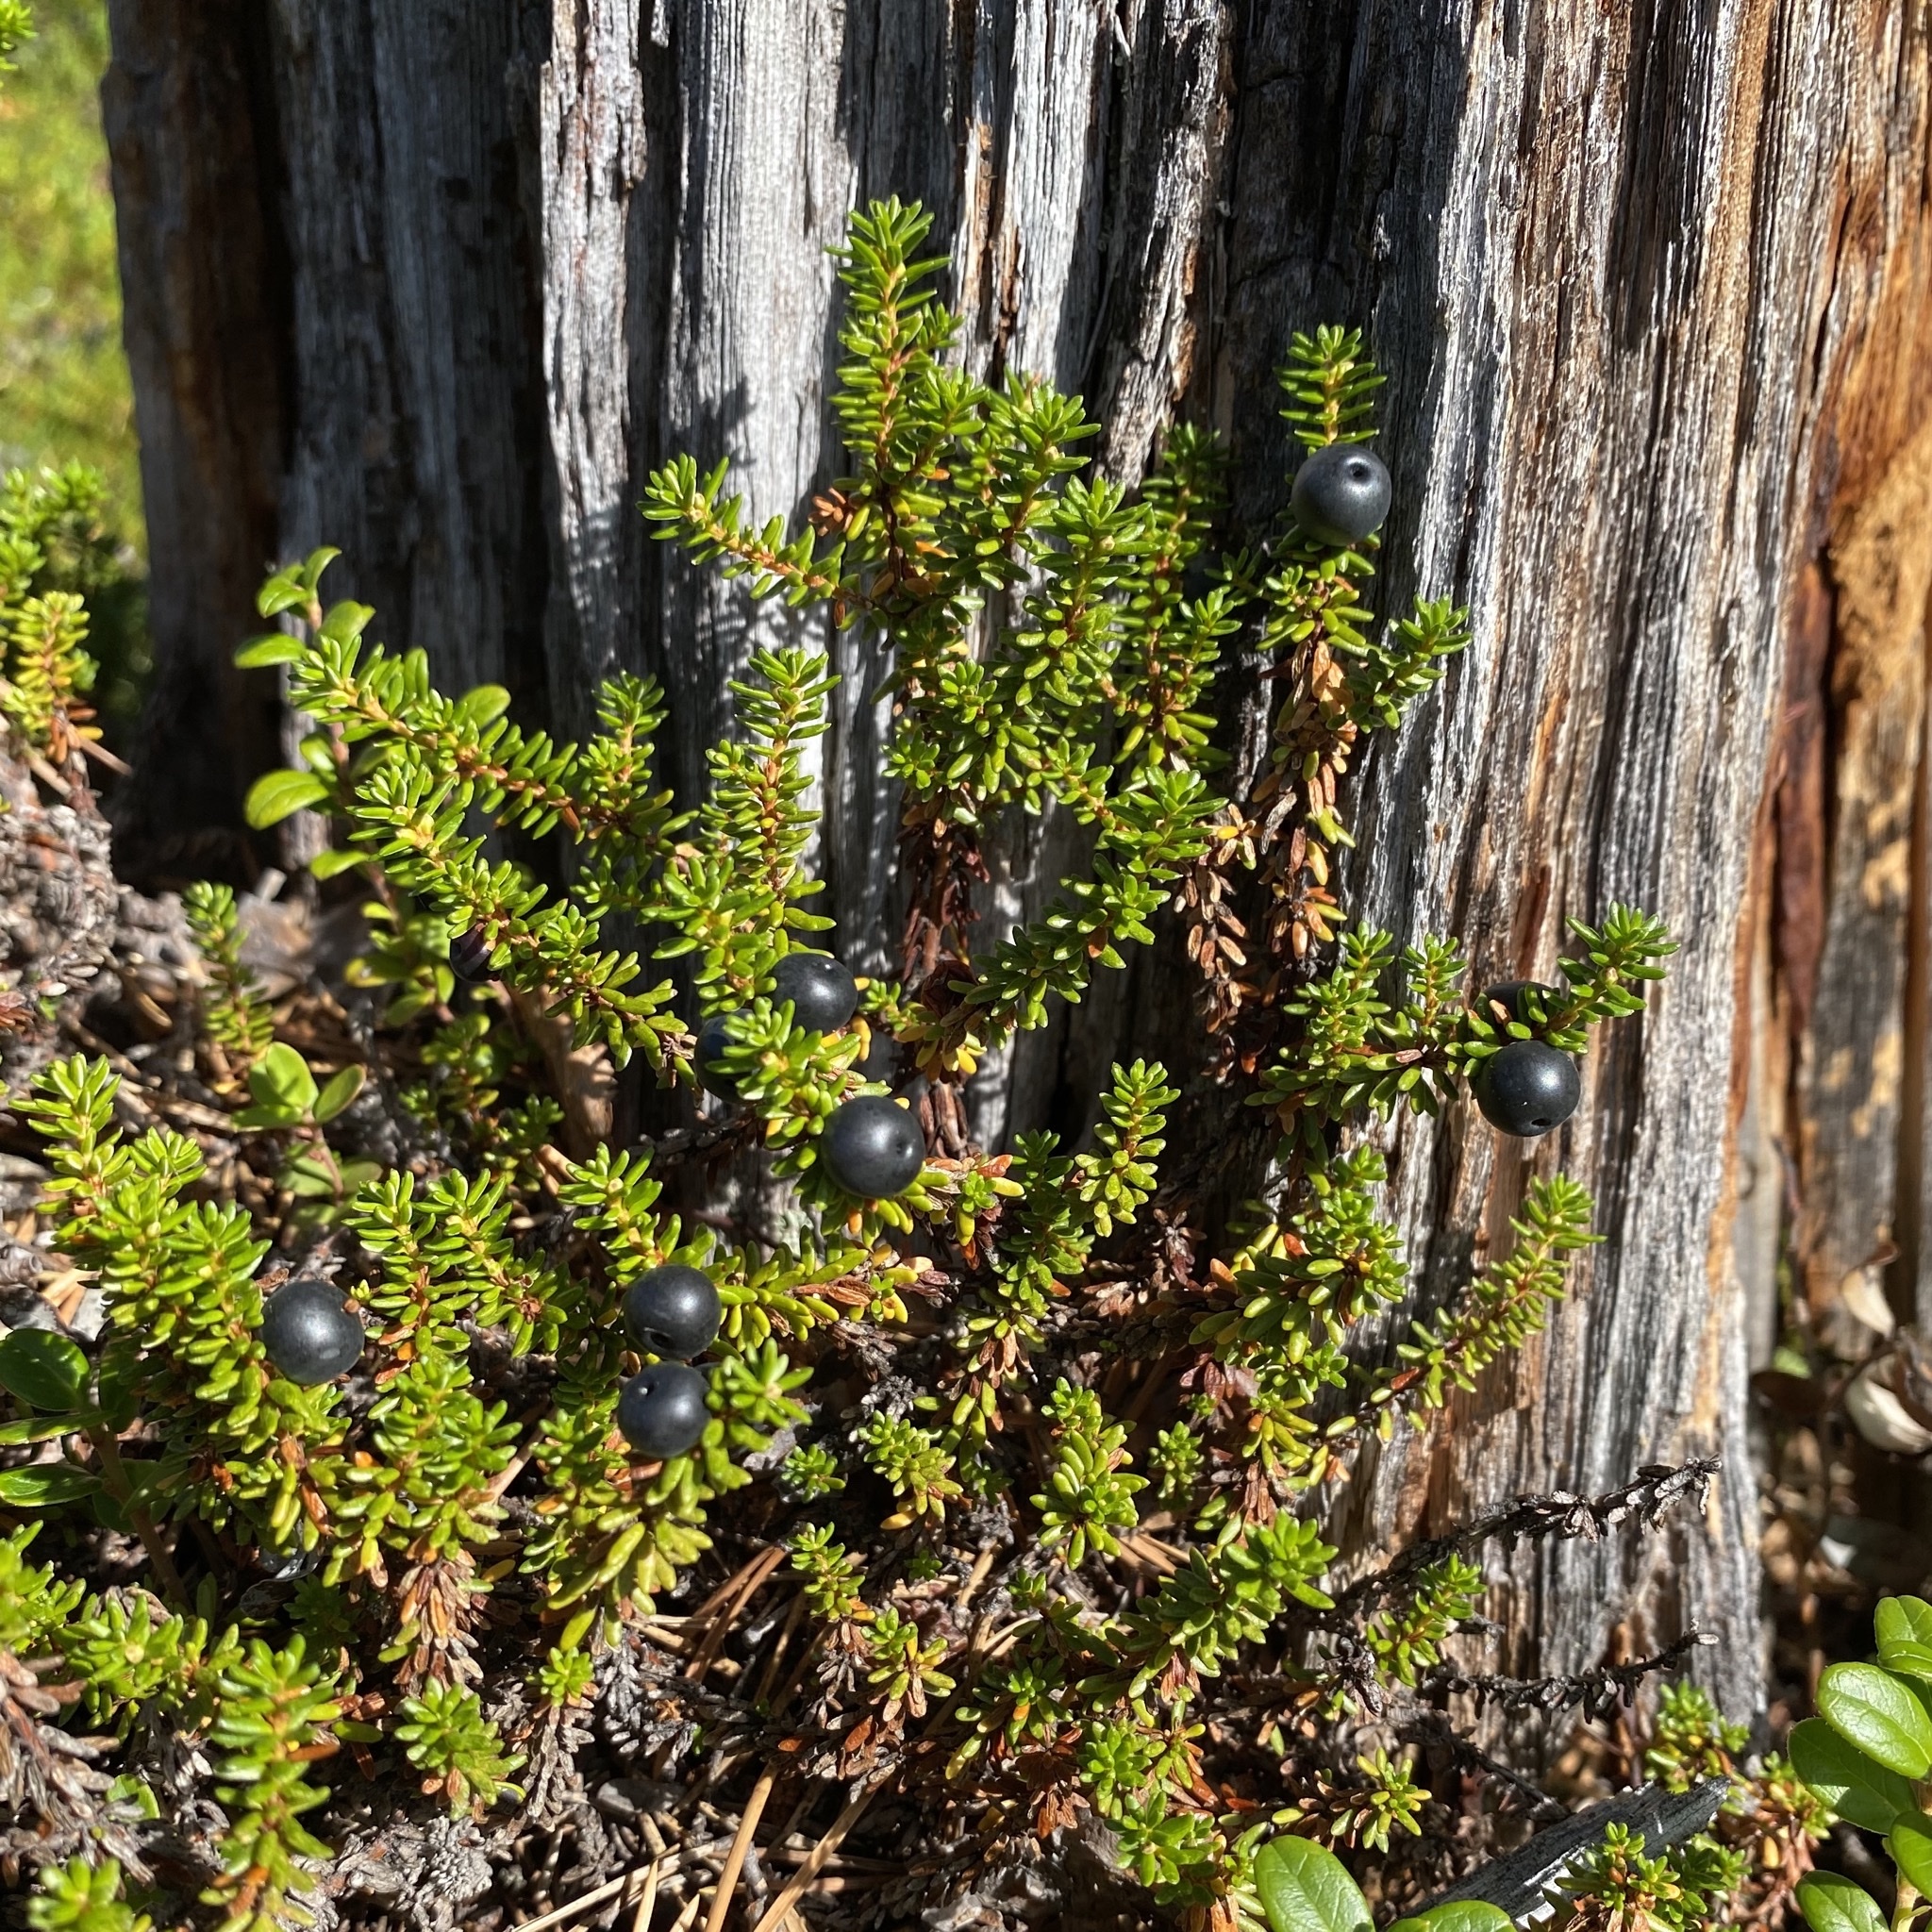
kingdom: Plantae
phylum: Tracheophyta
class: Magnoliopsida
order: Ericales
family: Ericaceae
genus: Empetrum
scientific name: Empetrum nigrum
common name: Black crowberry
